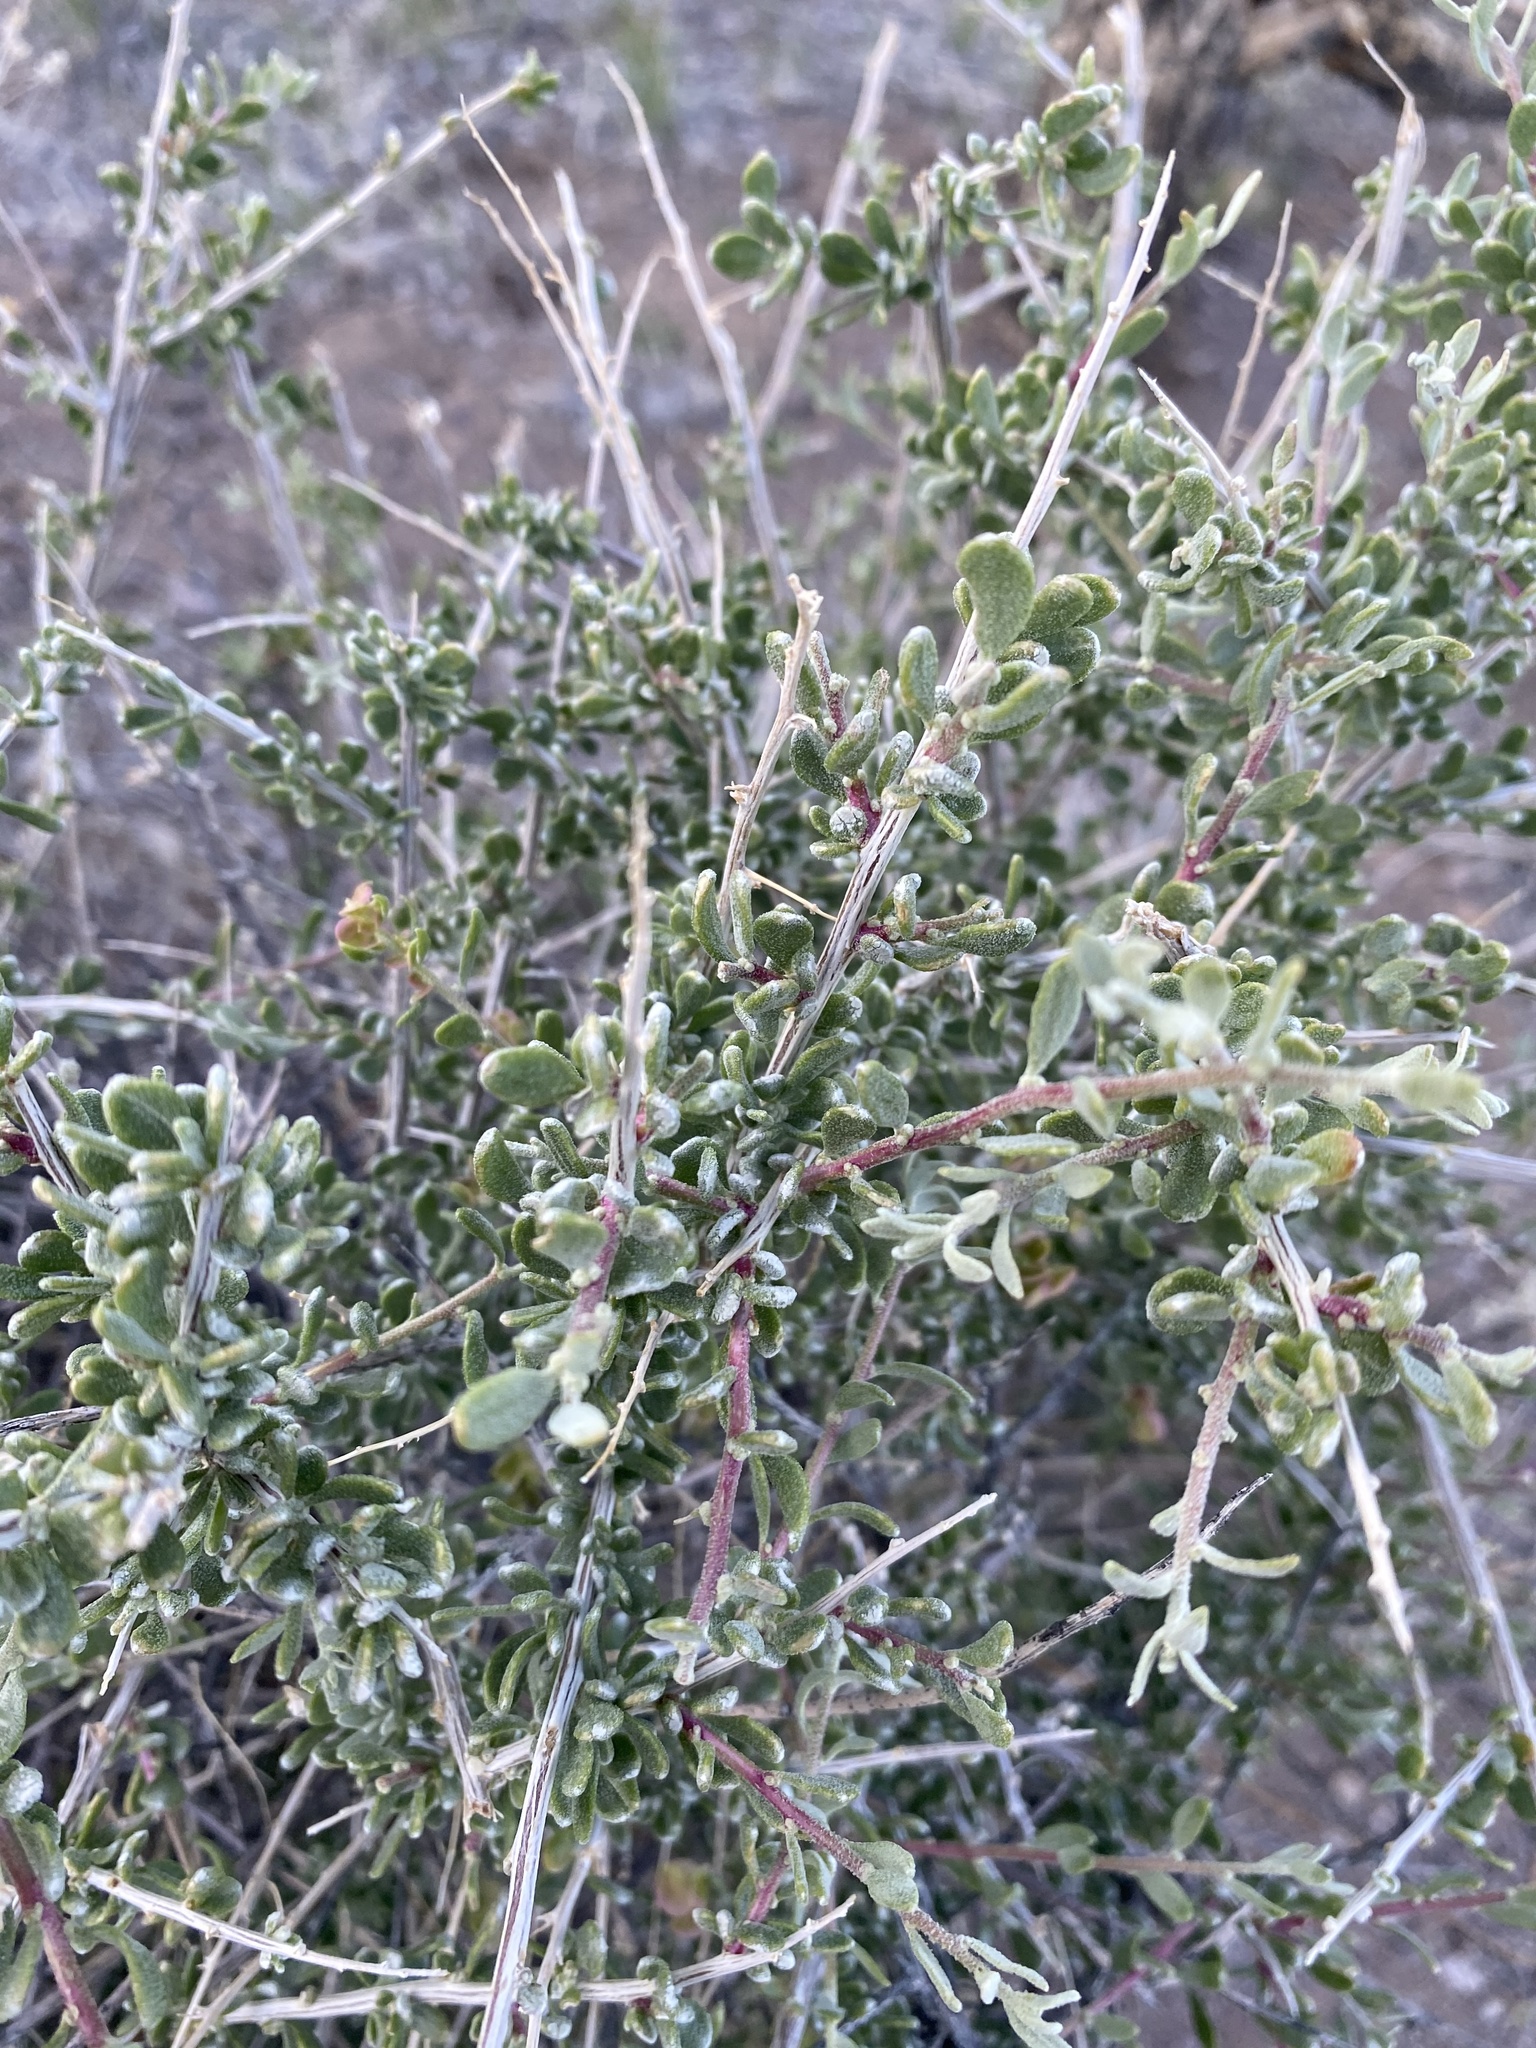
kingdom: Plantae
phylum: Tracheophyta
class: Magnoliopsida
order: Caryophyllales
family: Amaranthaceae
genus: Grayia
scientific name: Grayia spinosa
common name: Spiny hopsage
